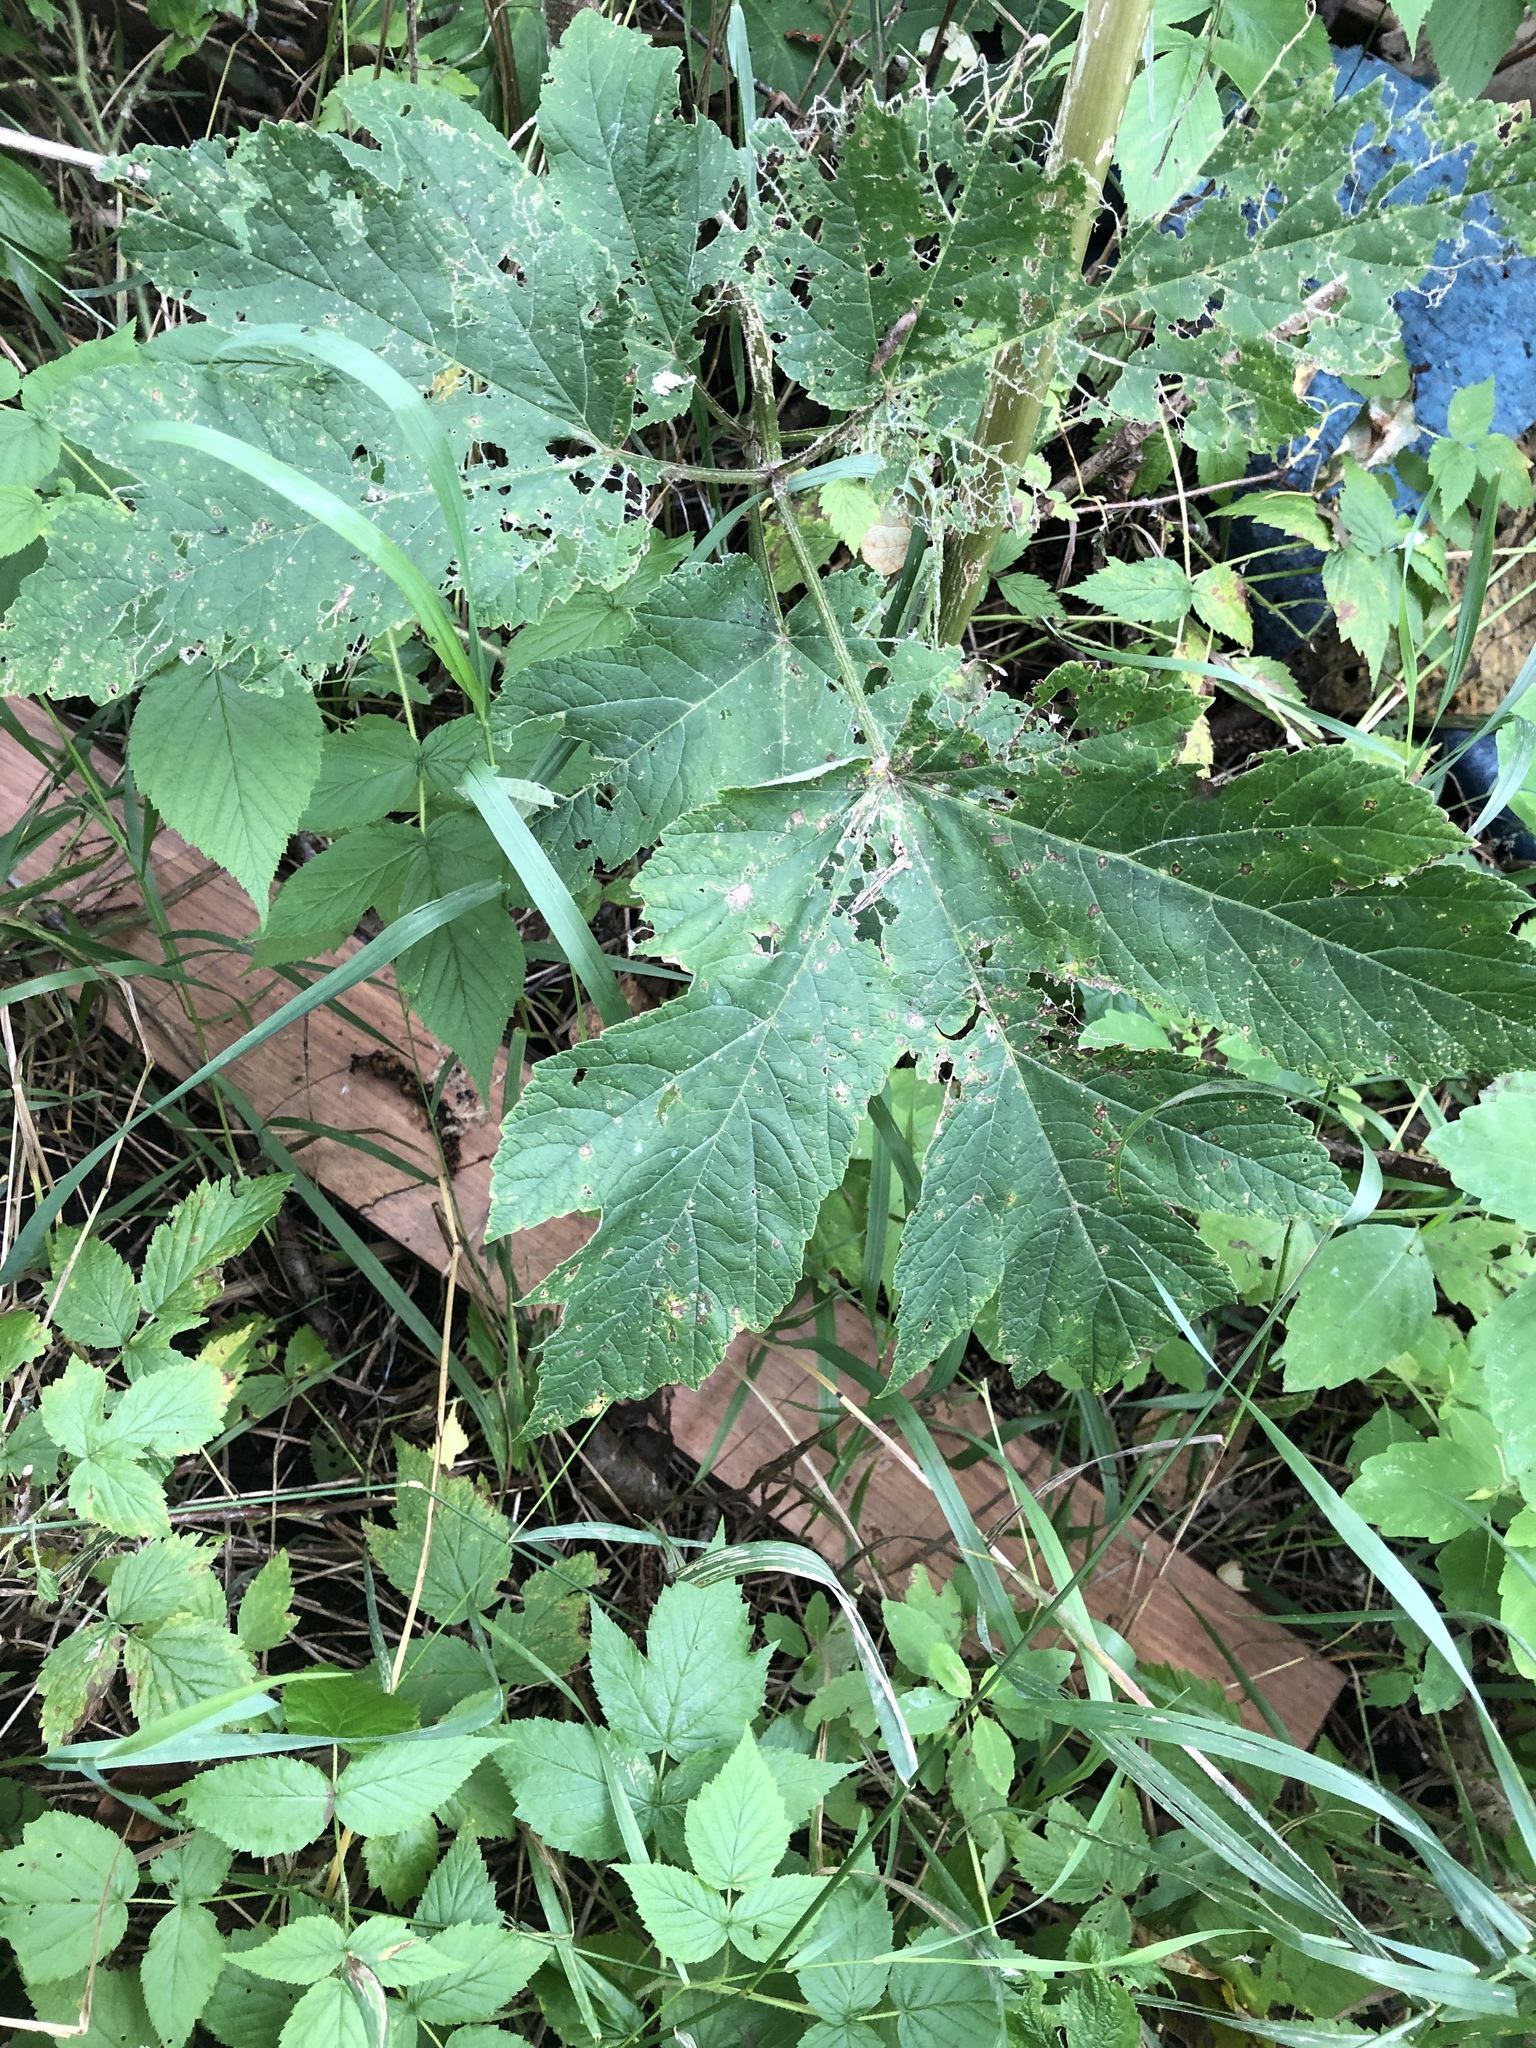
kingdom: Plantae
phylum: Tracheophyta
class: Magnoliopsida
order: Apiales
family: Apiaceae
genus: Heracleum
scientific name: Heracleum maximum
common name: American cow parsnip
